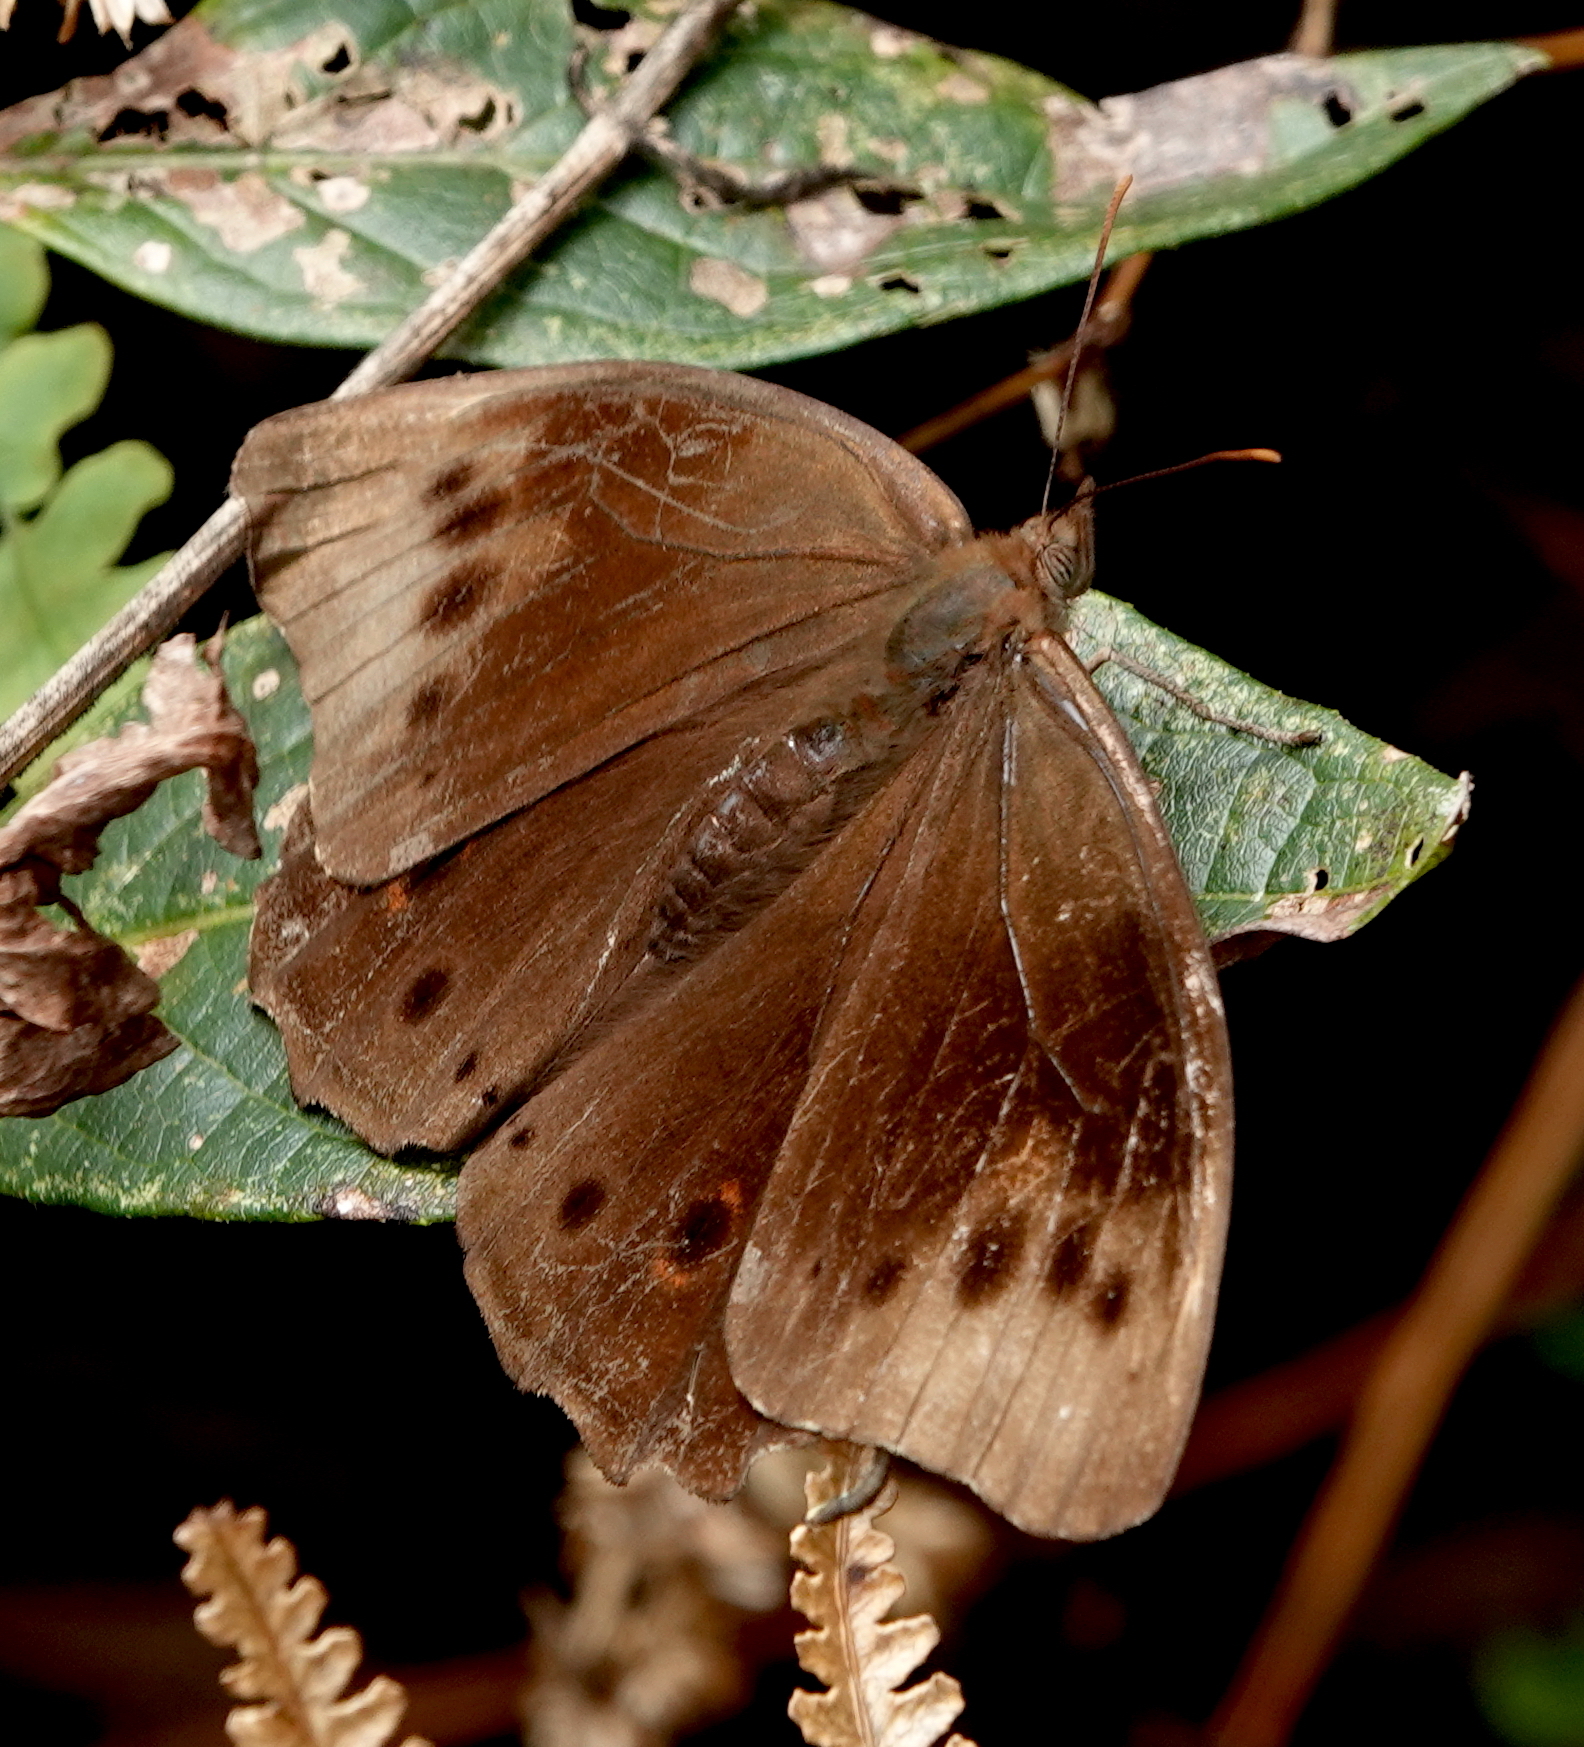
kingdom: Animalia
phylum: Arthropoda
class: Insecta
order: Lepidoptera
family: Nymphalidae
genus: Pronophila
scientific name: Pronophila orcus
